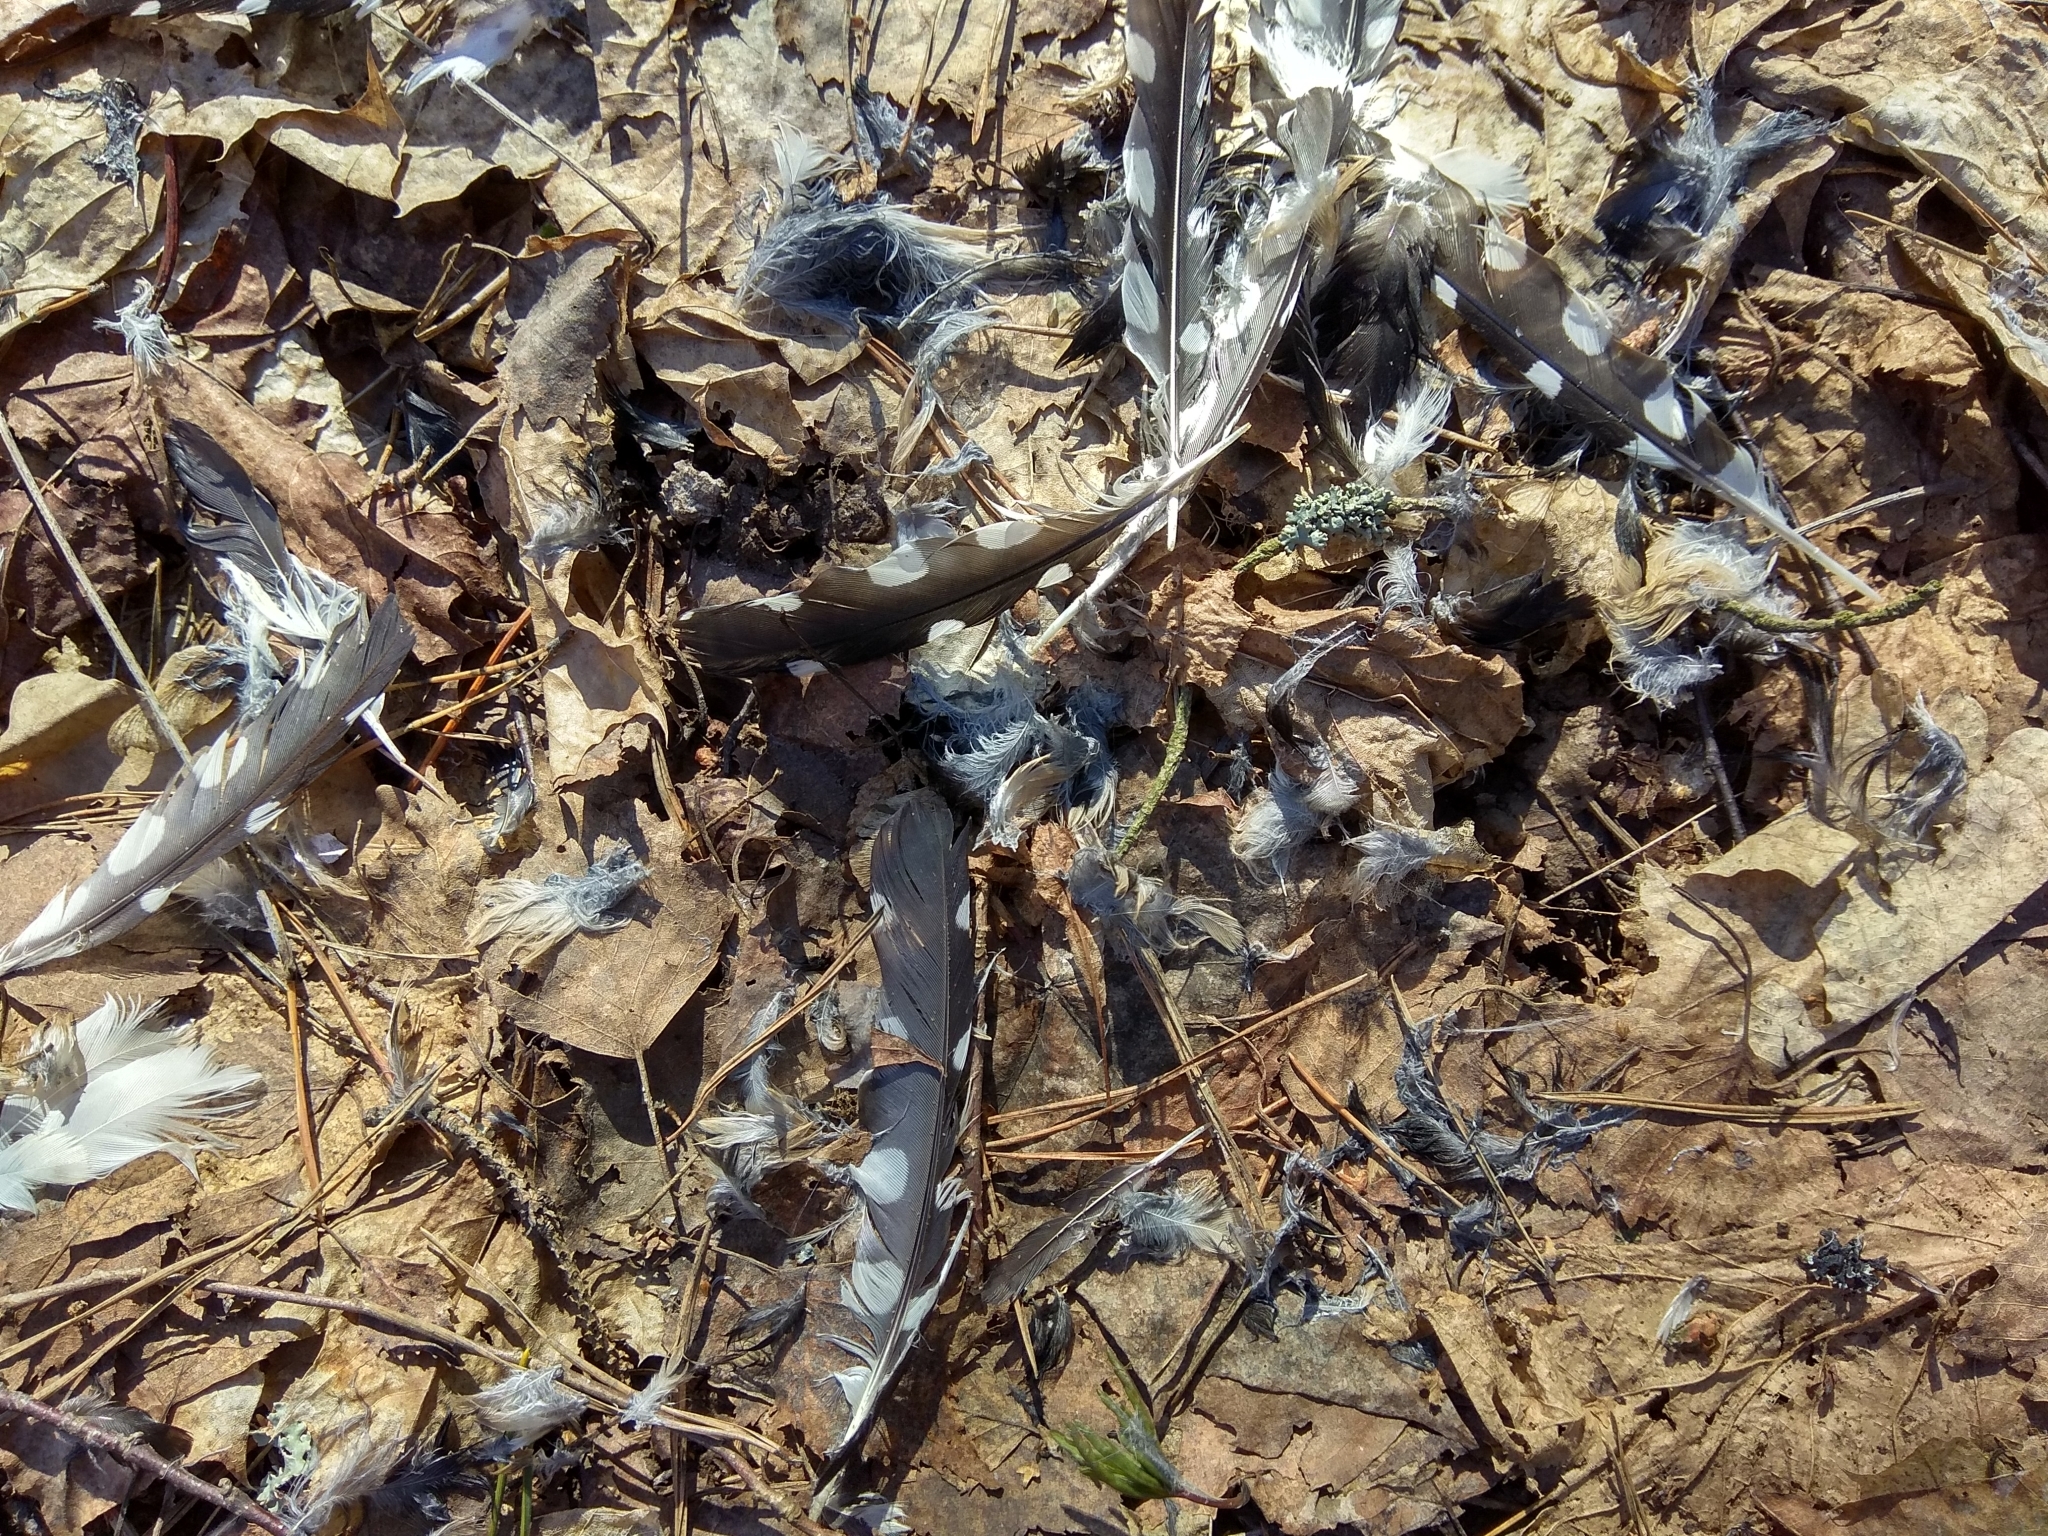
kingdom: Animalia
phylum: Chordata
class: Aves
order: Piciformes
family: Picidae
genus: Dendrocopos
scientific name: Dendrocopos major
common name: Great spotted woodpecker
